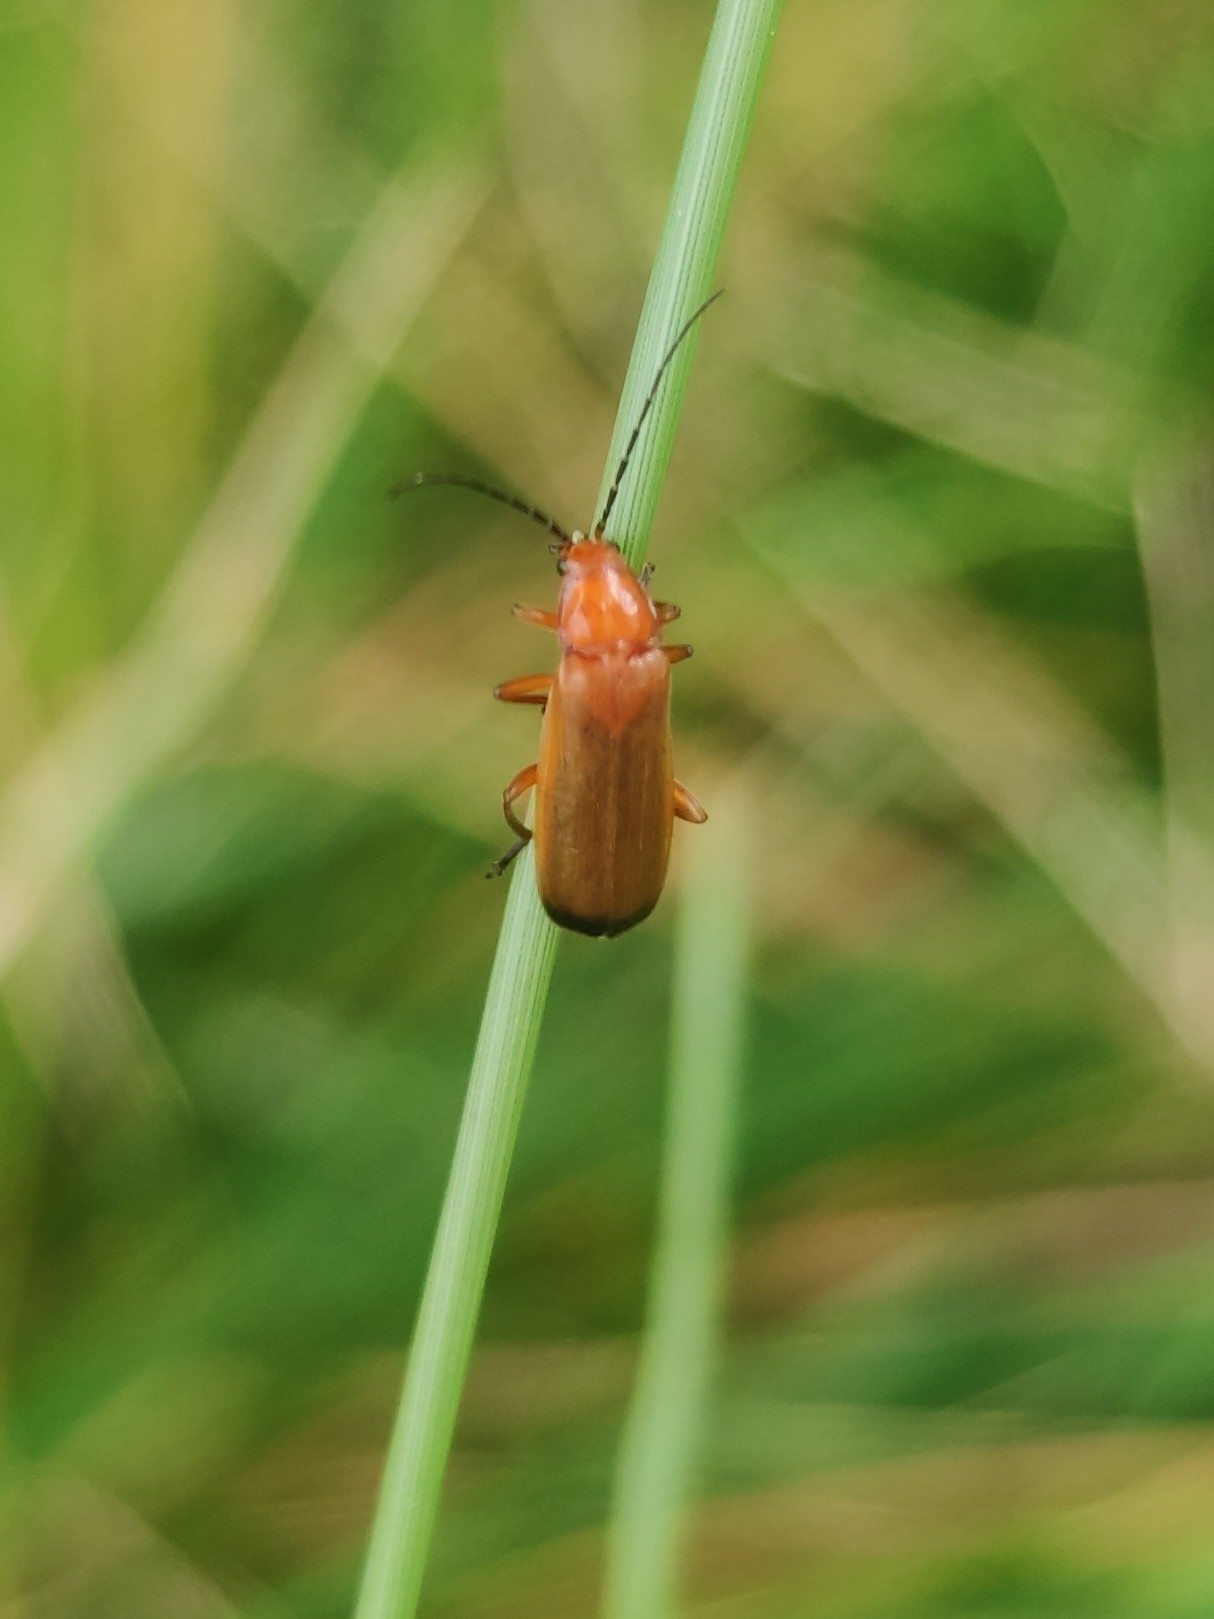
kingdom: Animalia
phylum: Arthropoda
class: Insecta
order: Coleoptera
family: Cantharidae
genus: Rhagonycha
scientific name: Rhagonycha fulva
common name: Common red soldier beetle
